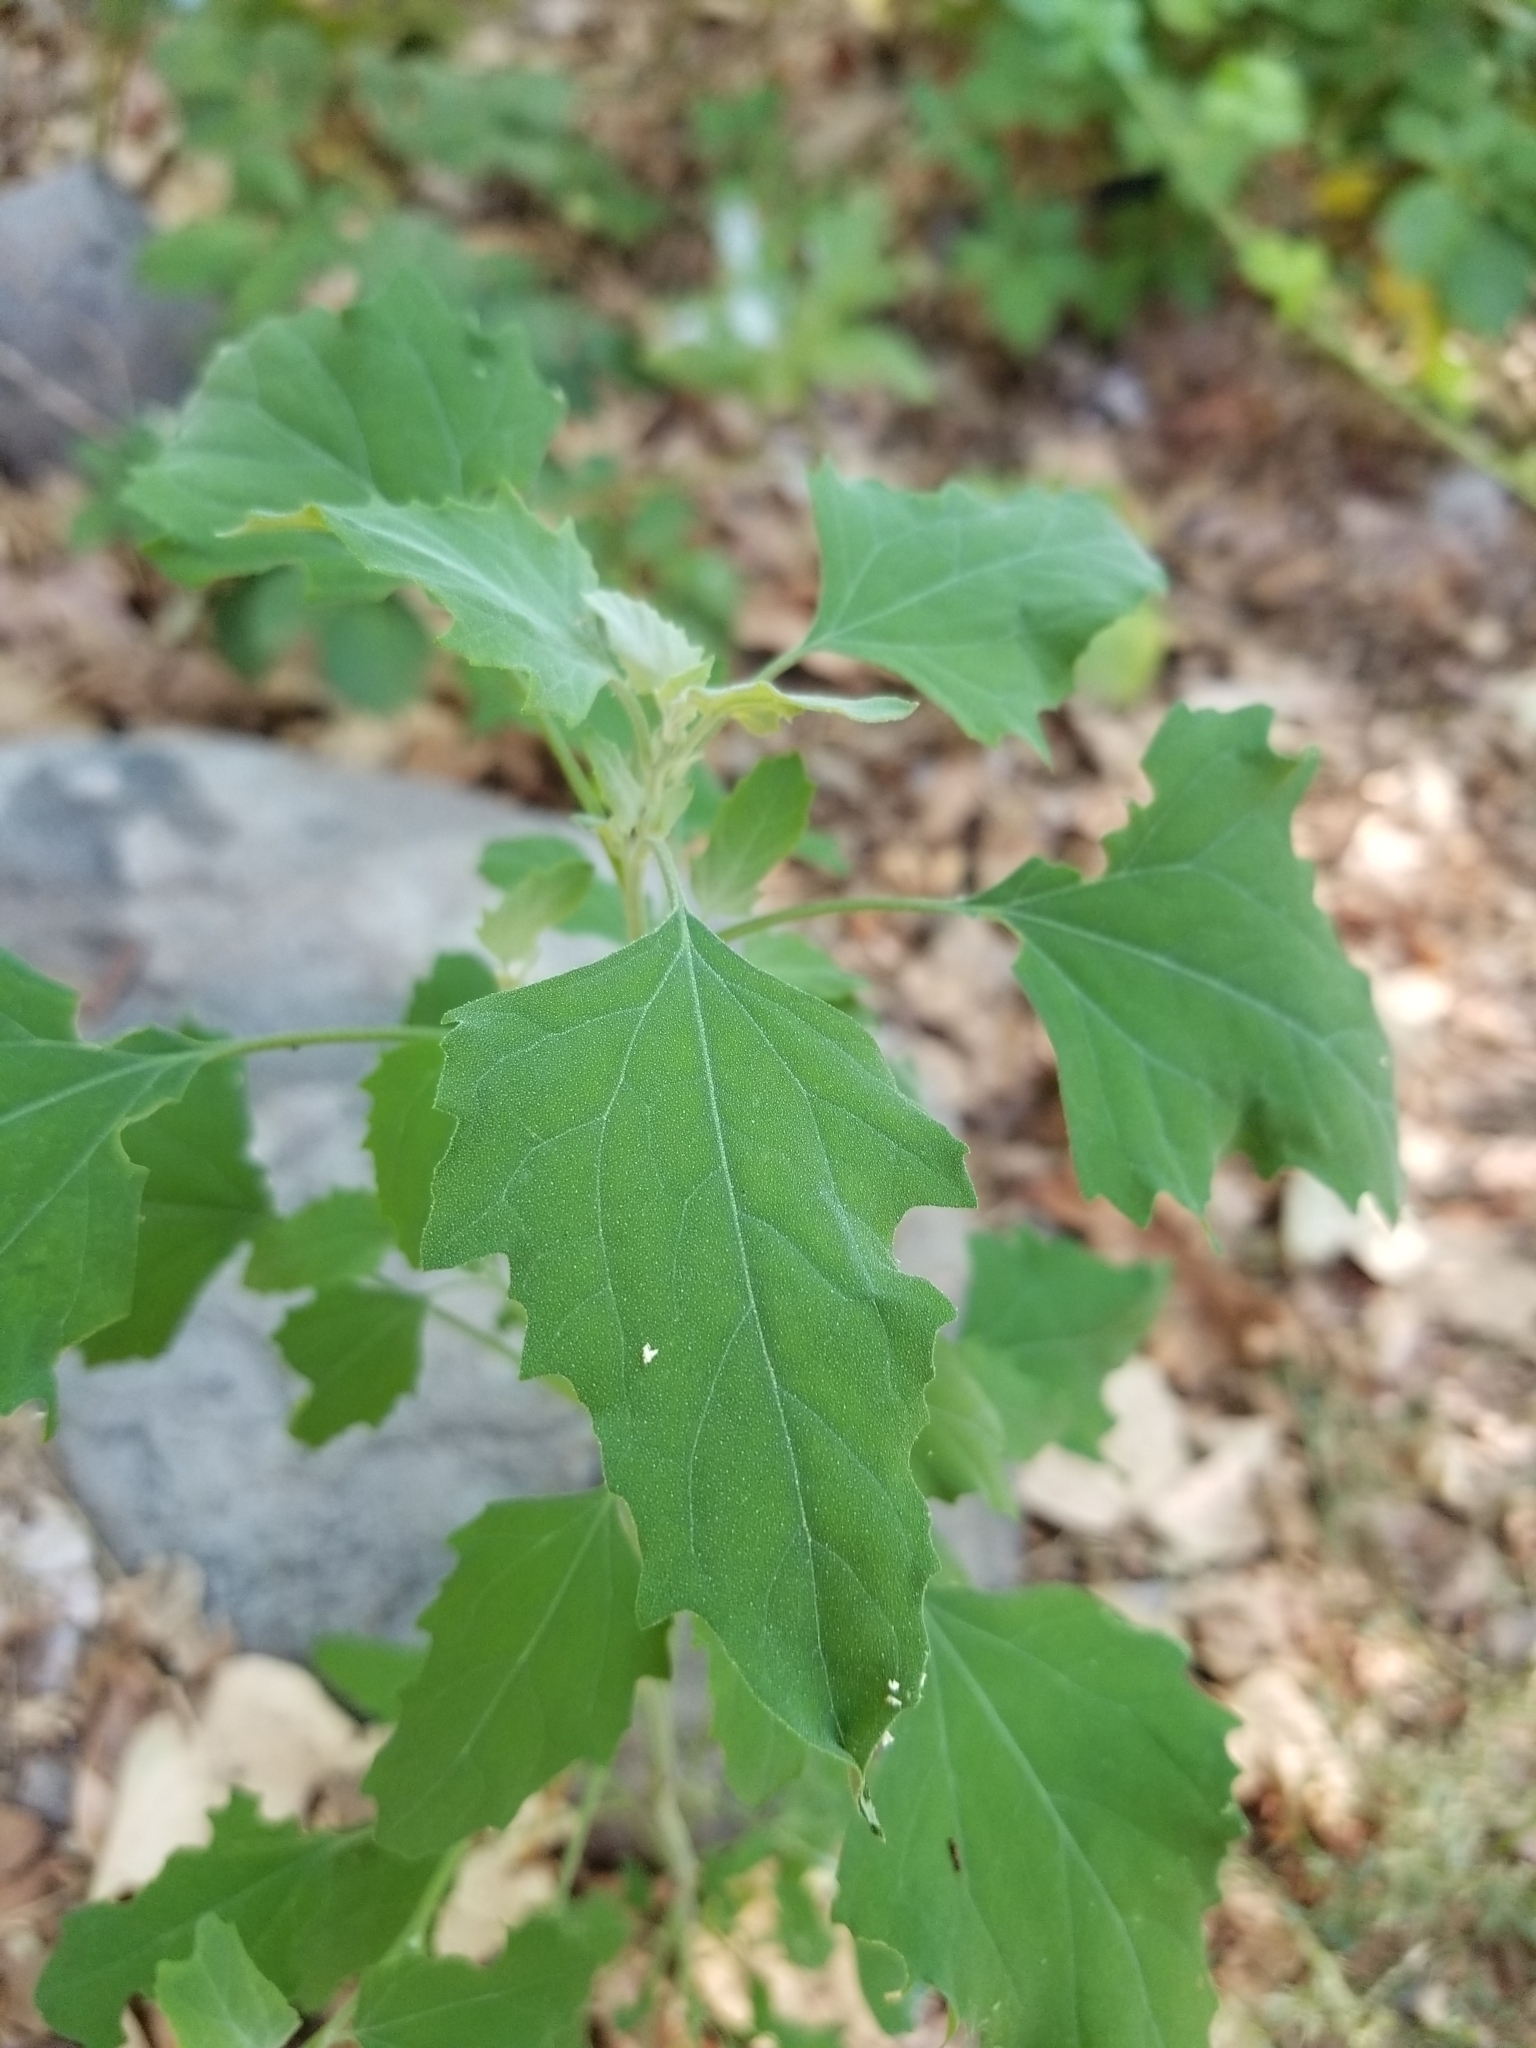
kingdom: Plantae
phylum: Tracheophyta
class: Magnoliopsida
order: Caryophyllales
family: Amaranthaceae
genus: Chenopodium
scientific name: Chenopodium album
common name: Fat-hen
